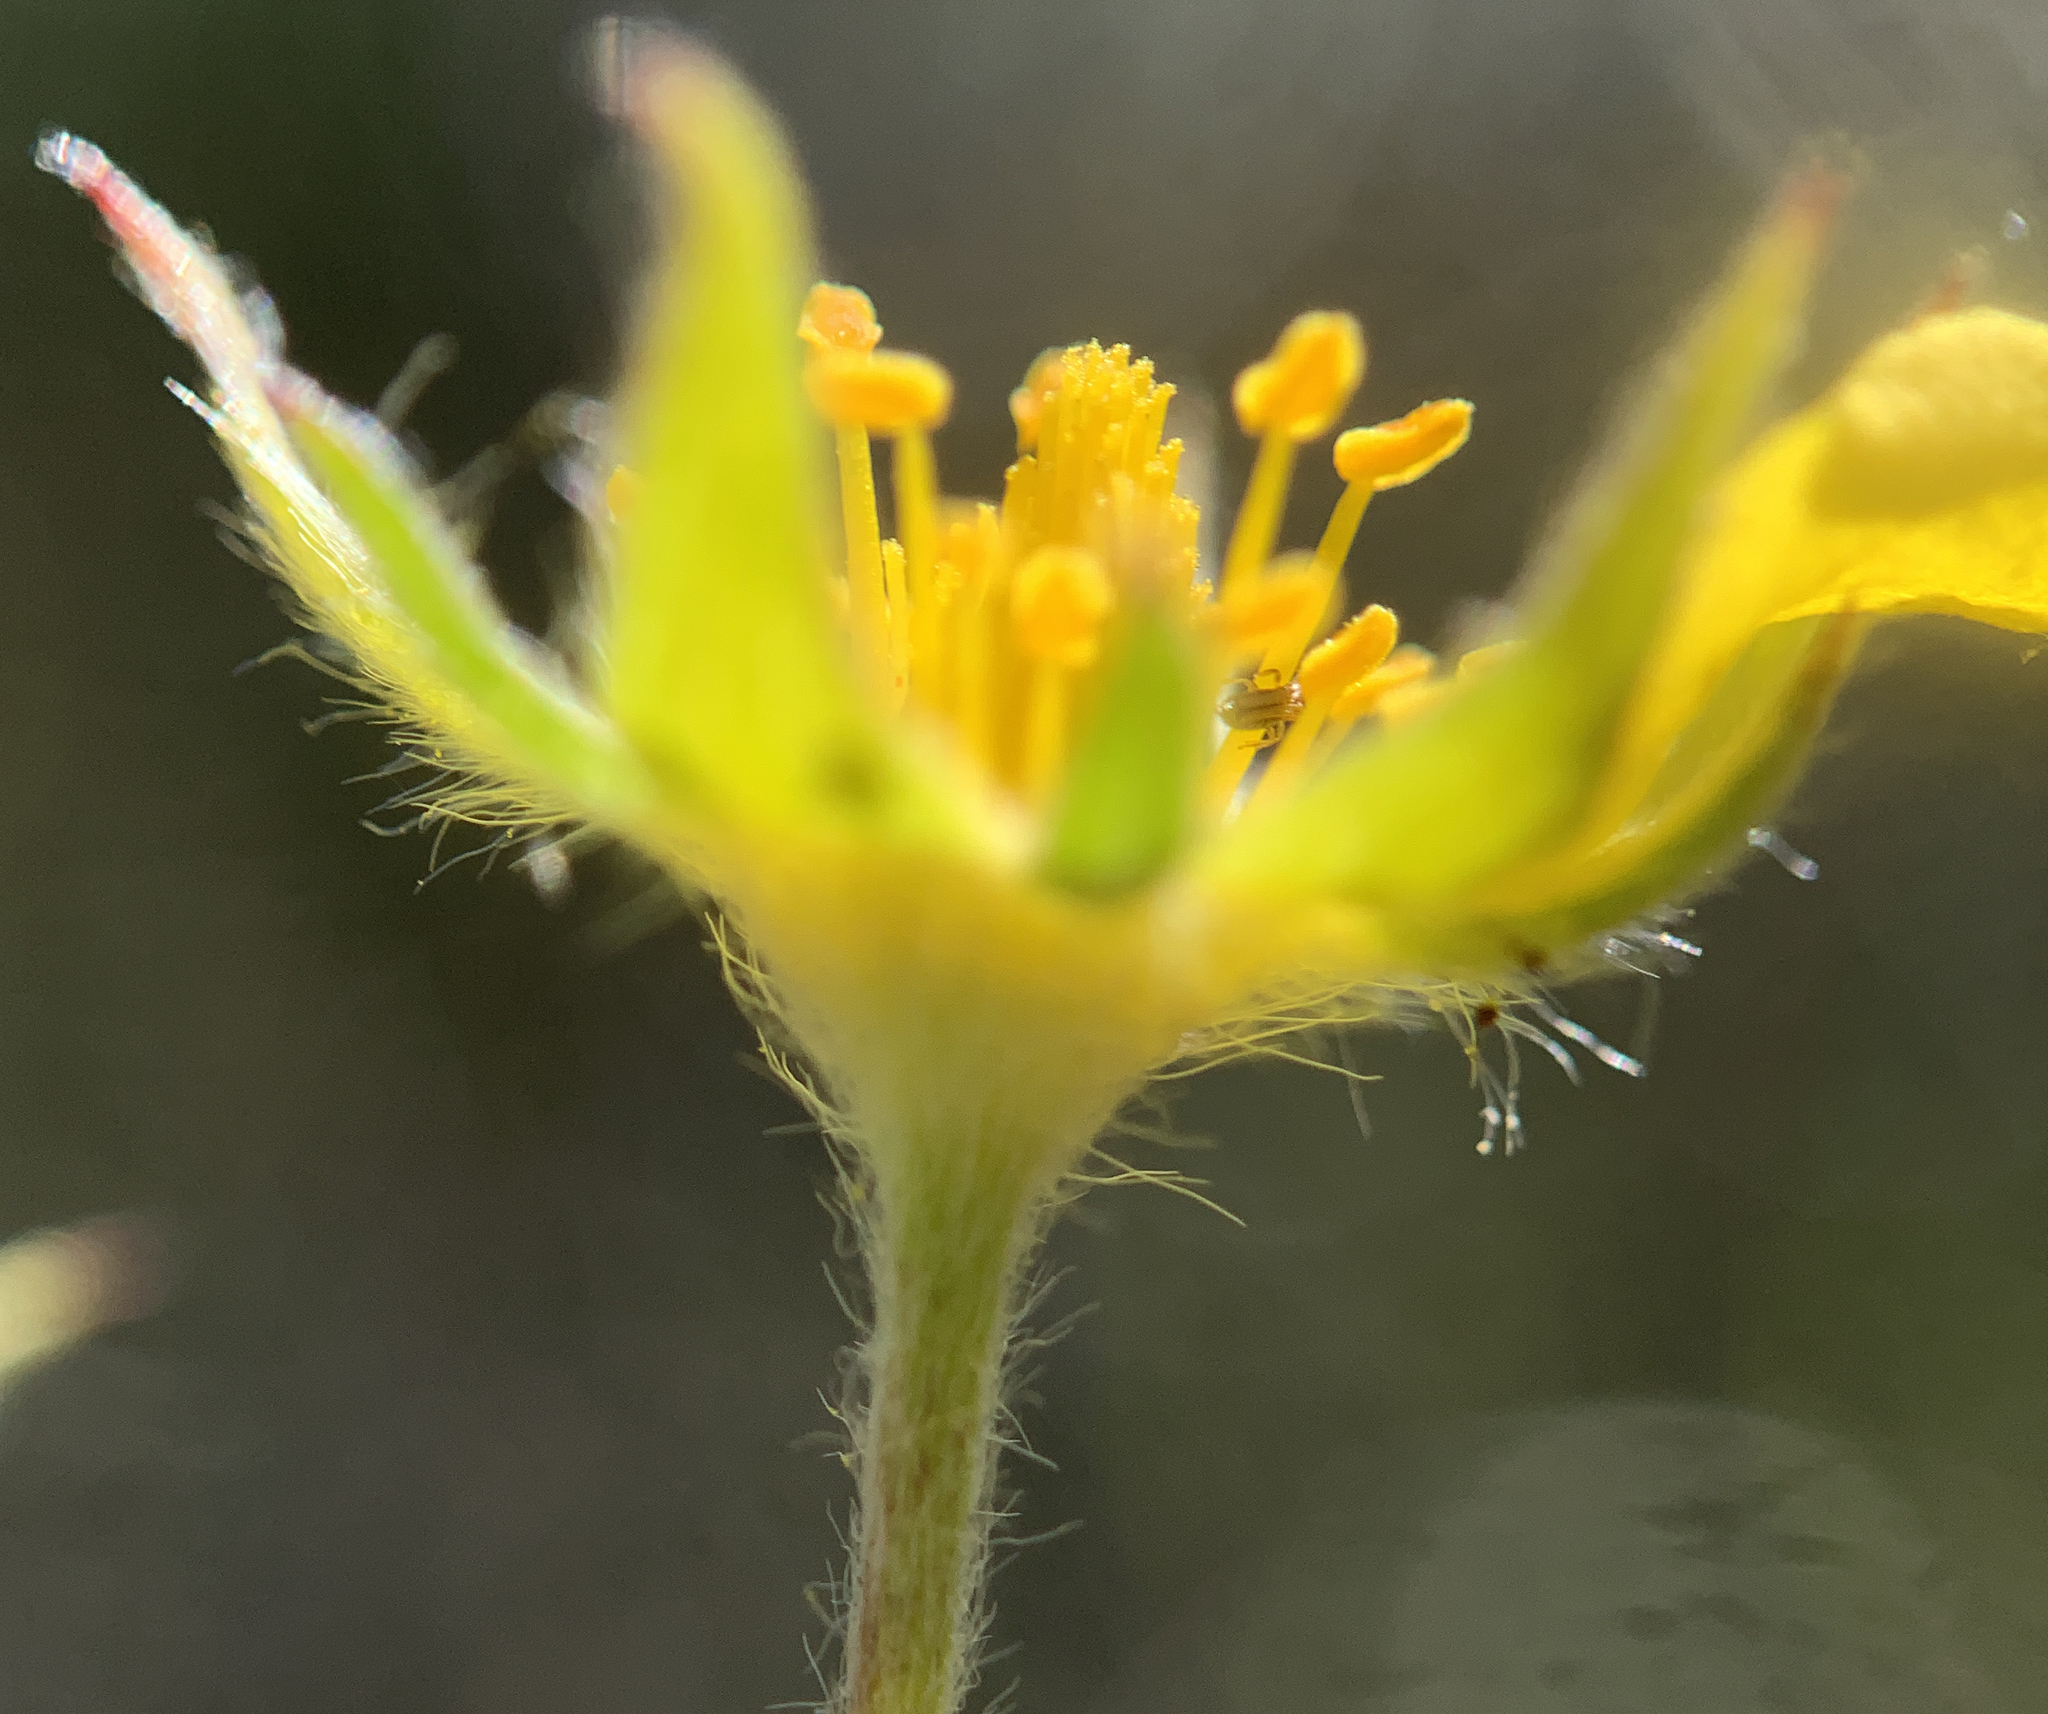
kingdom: Plantae
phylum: Tracheophyta
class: Magnoliopsida
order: Rosales
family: Rosaceae
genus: Potentilla
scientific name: Potentilla gracilis
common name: Graceful cinquefoil
